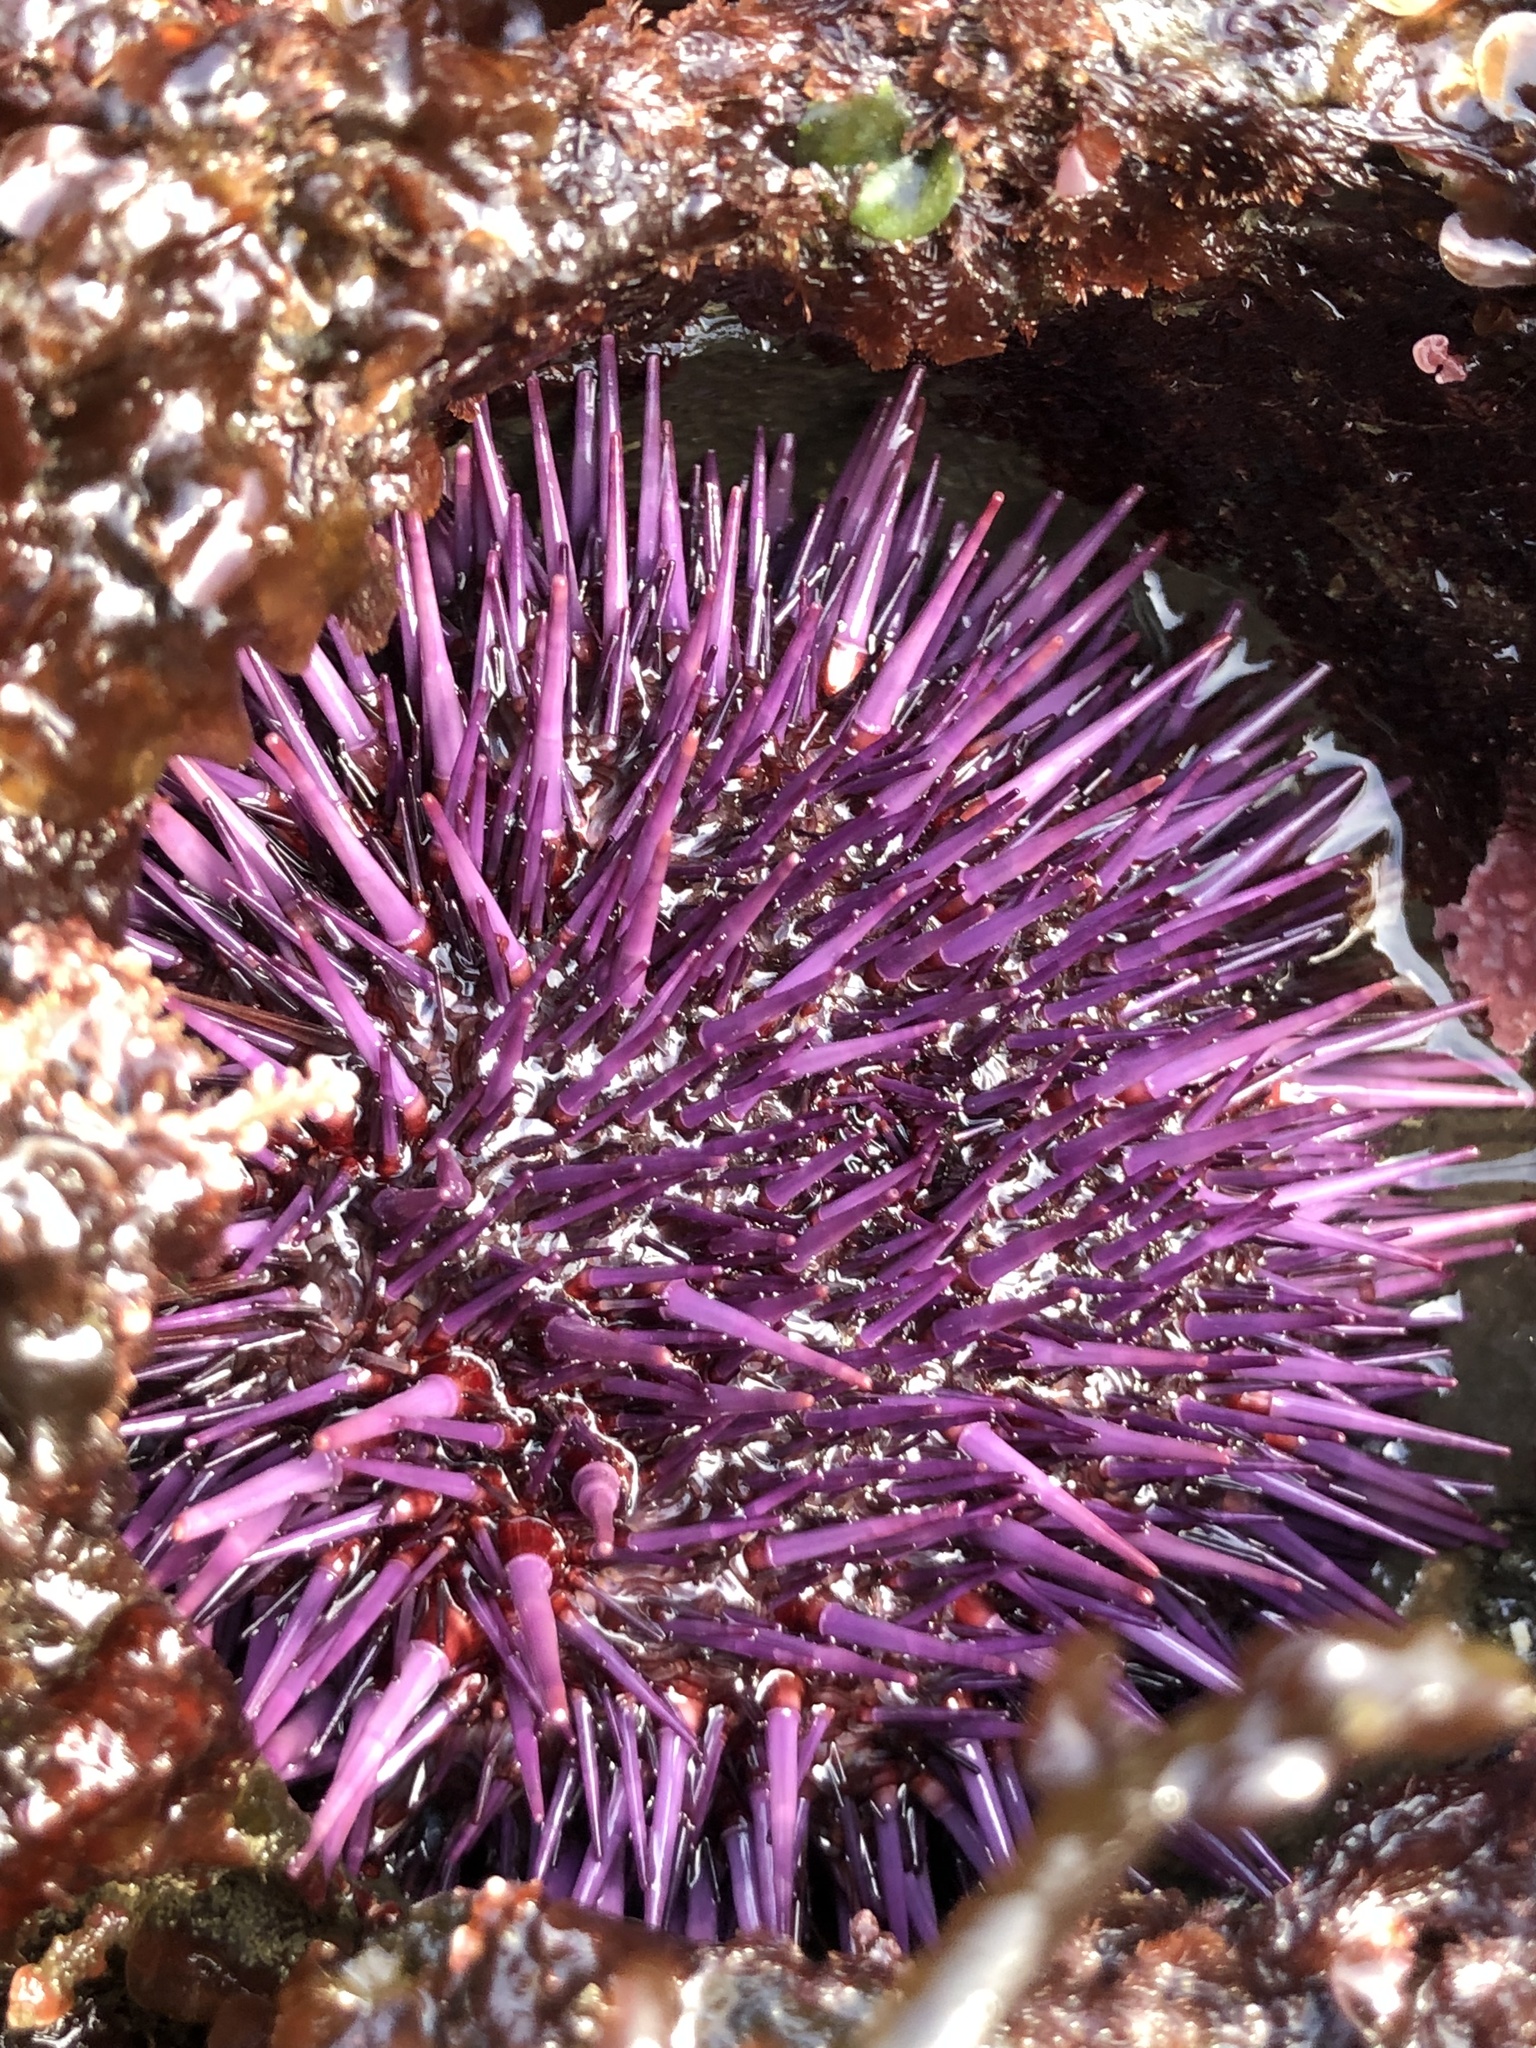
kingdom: Animalia
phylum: Echinodermata
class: Echinoidea
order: Camarodonta
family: Strongylocentrotidae
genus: Strongylocentrotus
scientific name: Strongylocentrotus purpuratus
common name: Purple sea urchin
